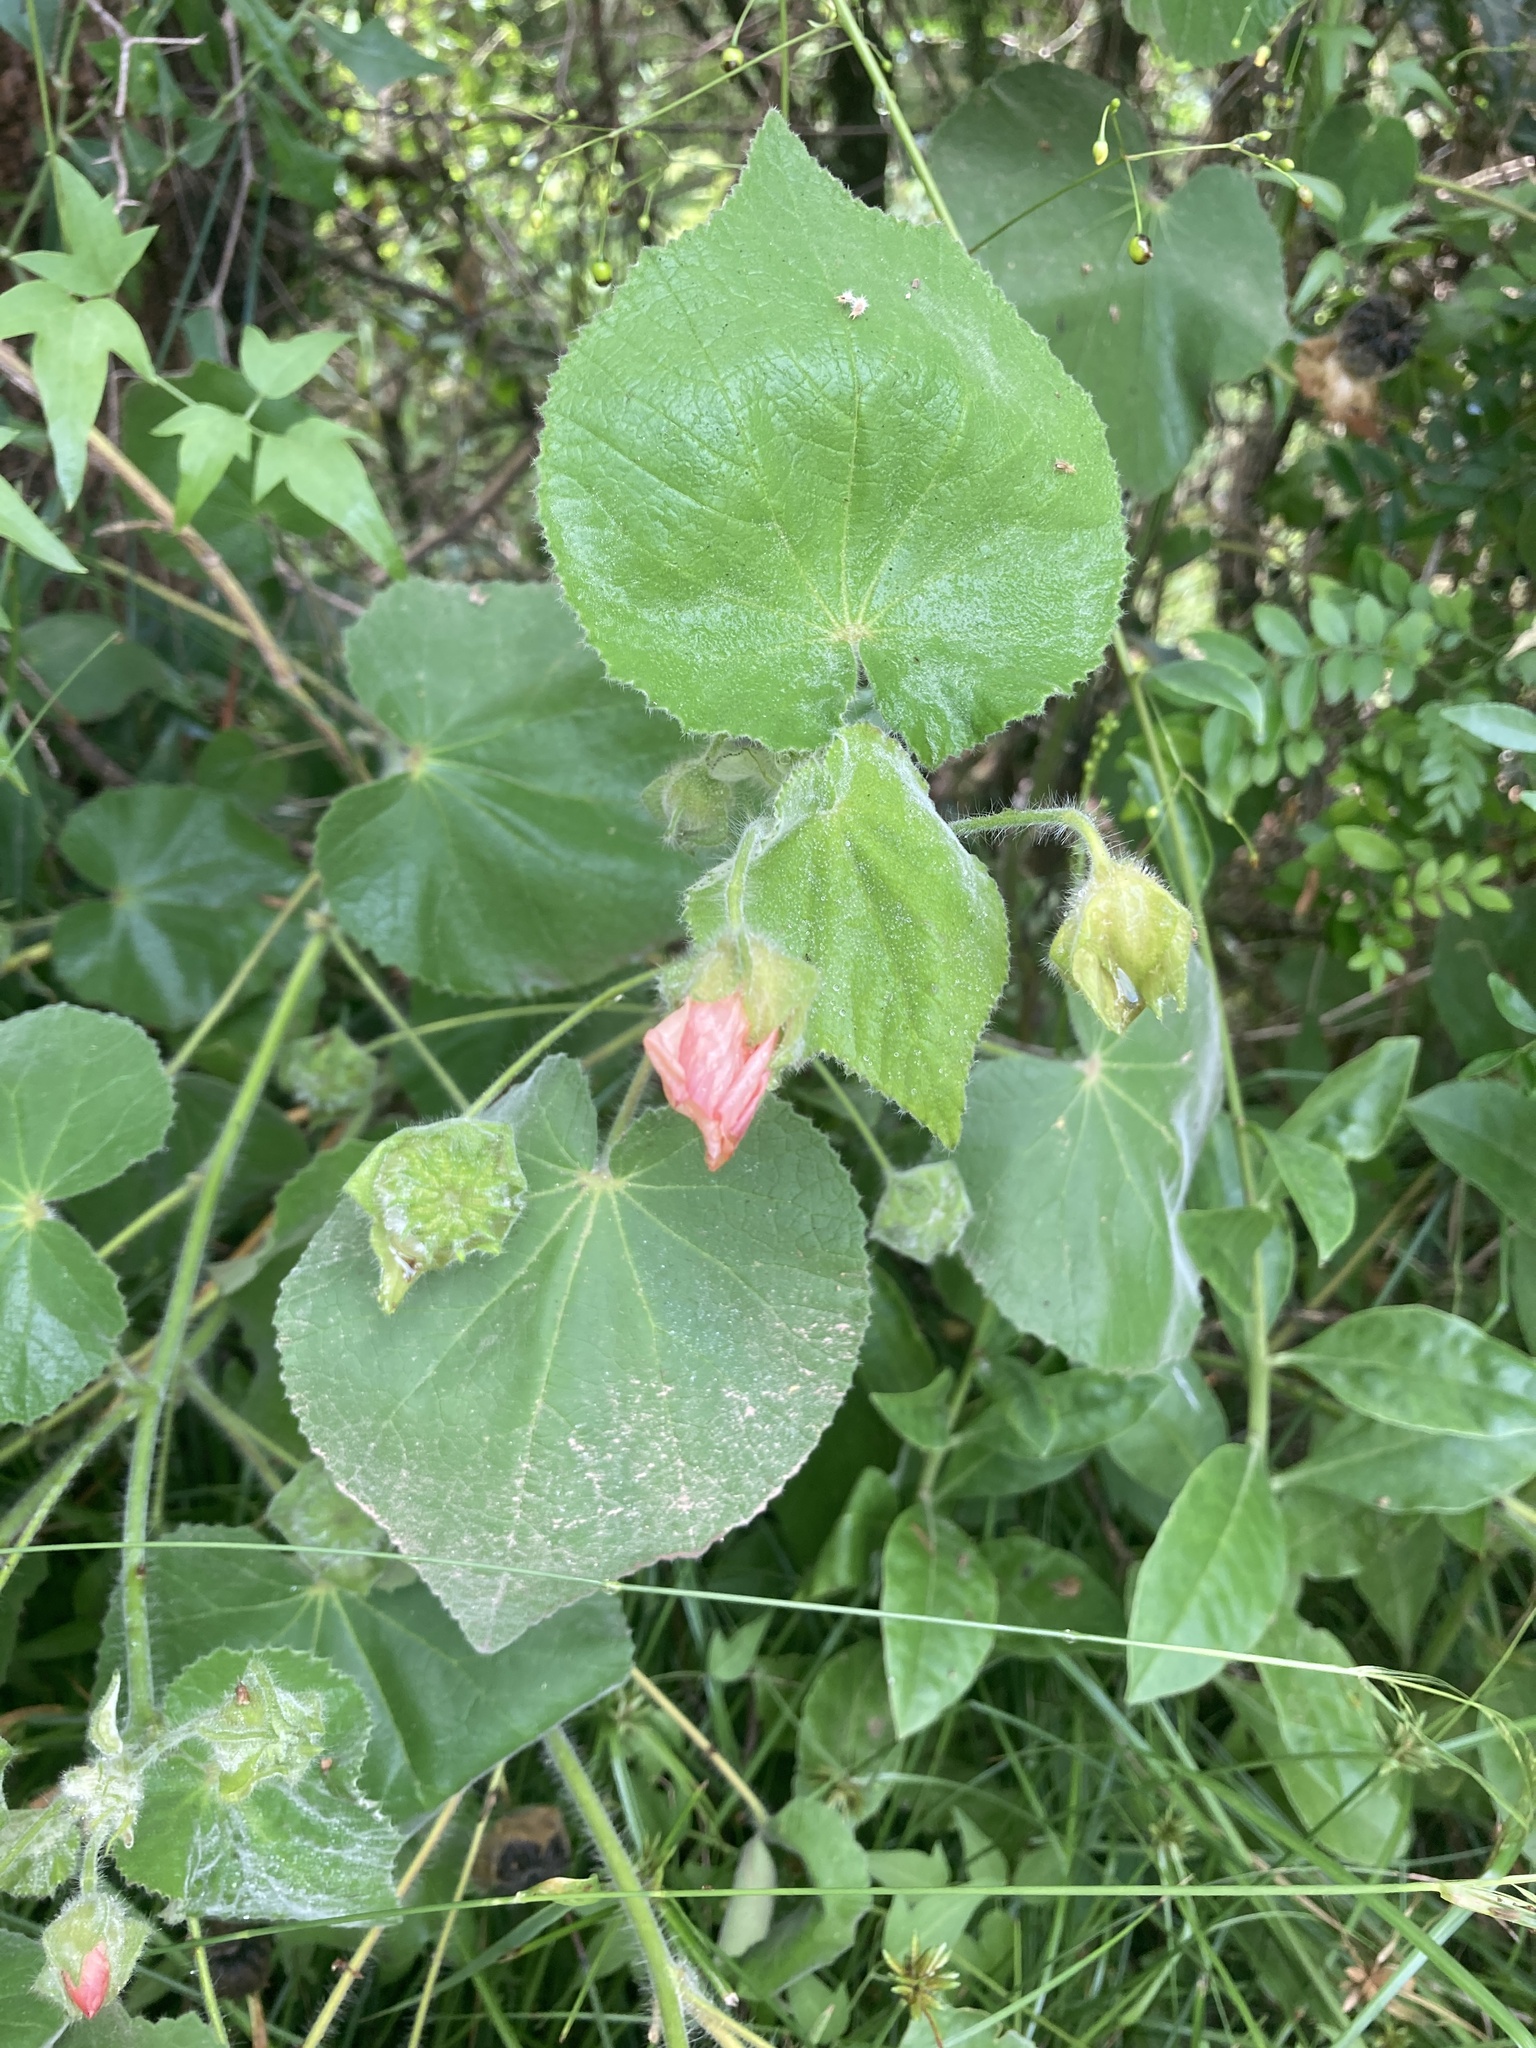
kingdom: Plantae
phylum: Tracheophyta
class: Magnoliopsida
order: Malvales
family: Malvaceae
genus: Callianthe
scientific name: Callianthe pauciflora
